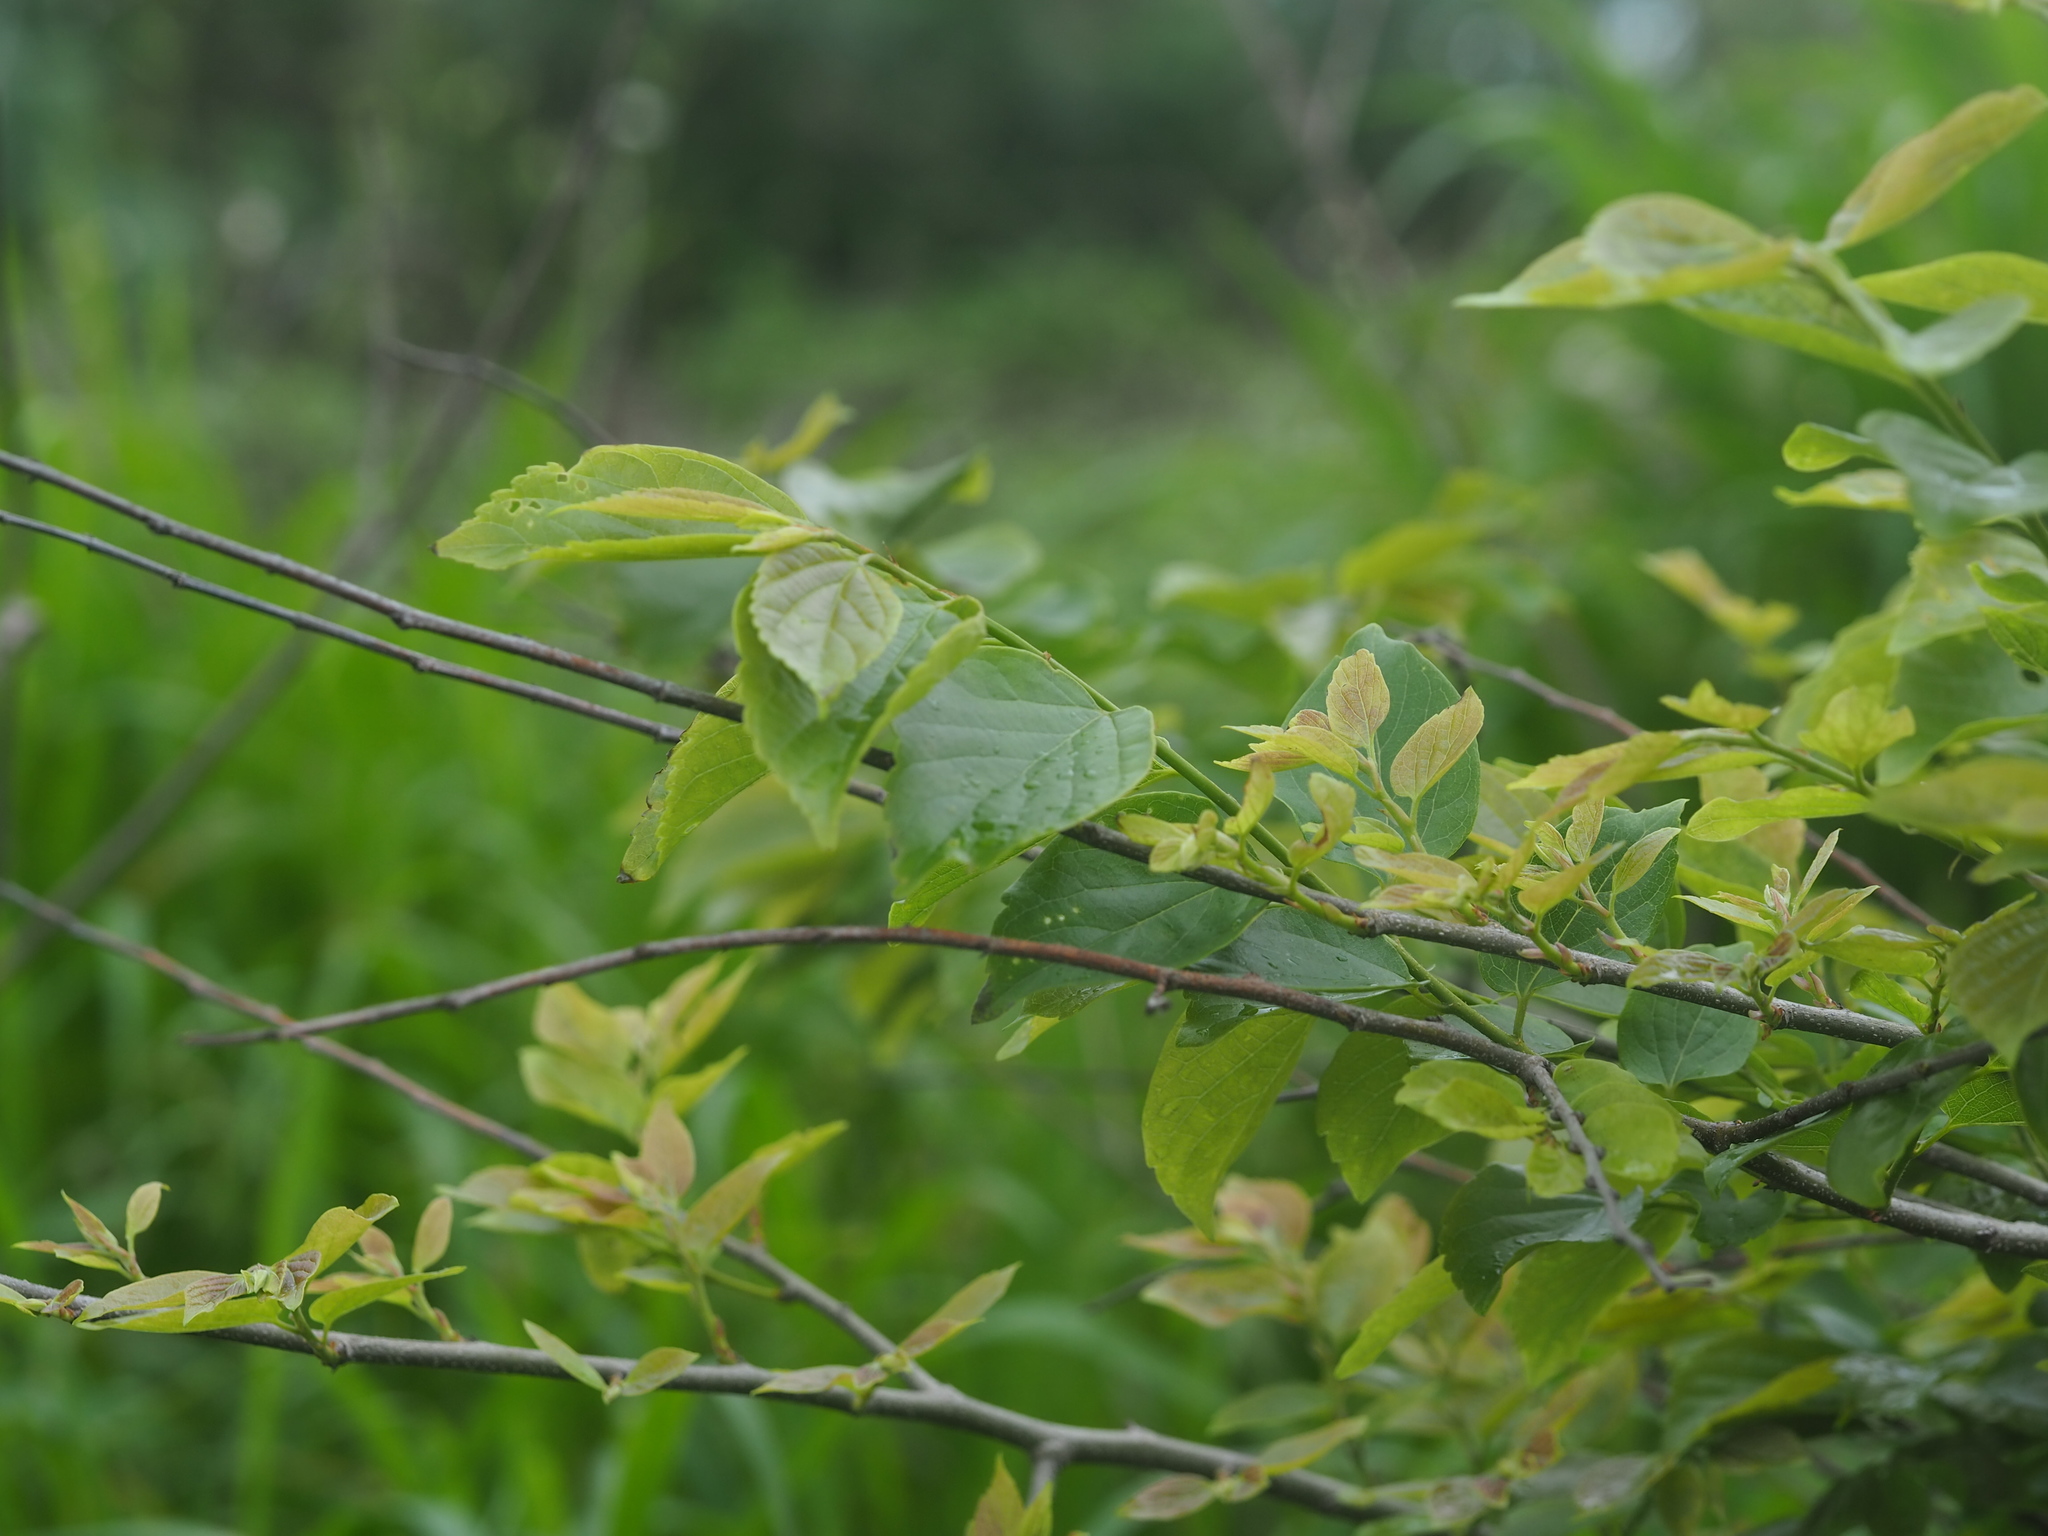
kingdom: Plantae
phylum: Tracheophyta
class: Magnoliopsida
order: Rosales
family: Cannabaceae
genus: Celtis
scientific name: Celtis sinensis
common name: Chinese hackberry
